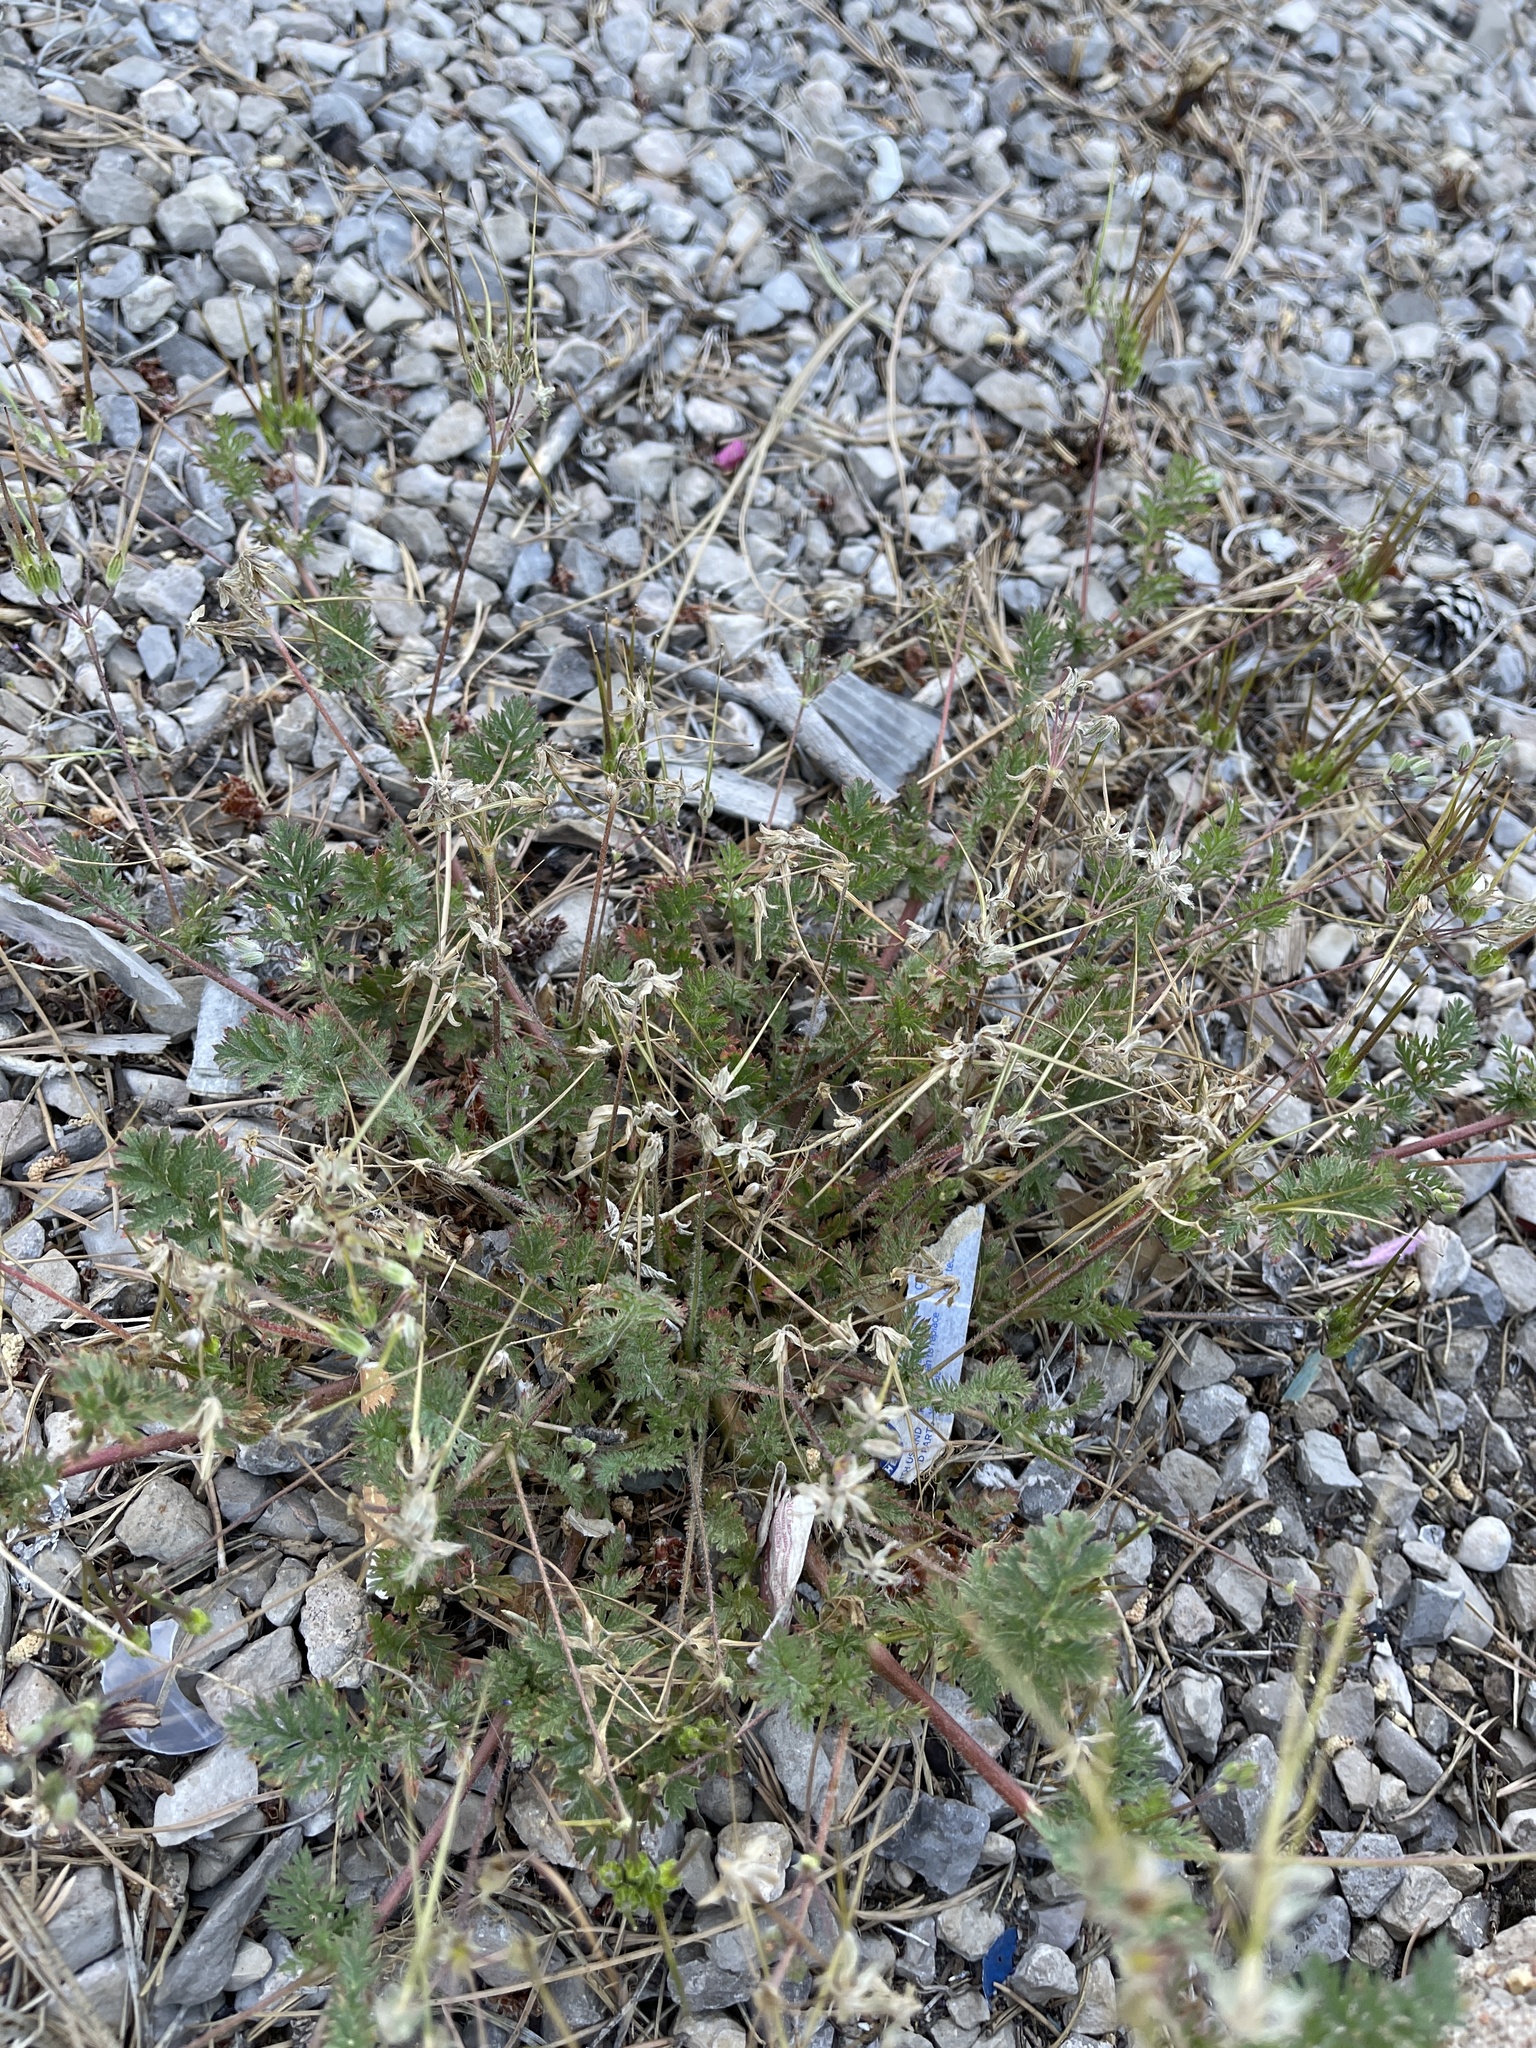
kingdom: Plantae
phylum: Tracheophyta
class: Magnoliopsida
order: Geraniales
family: Geraniaceae
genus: Erodium
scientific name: Erodium cicutarium
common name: Common stork's-bill
